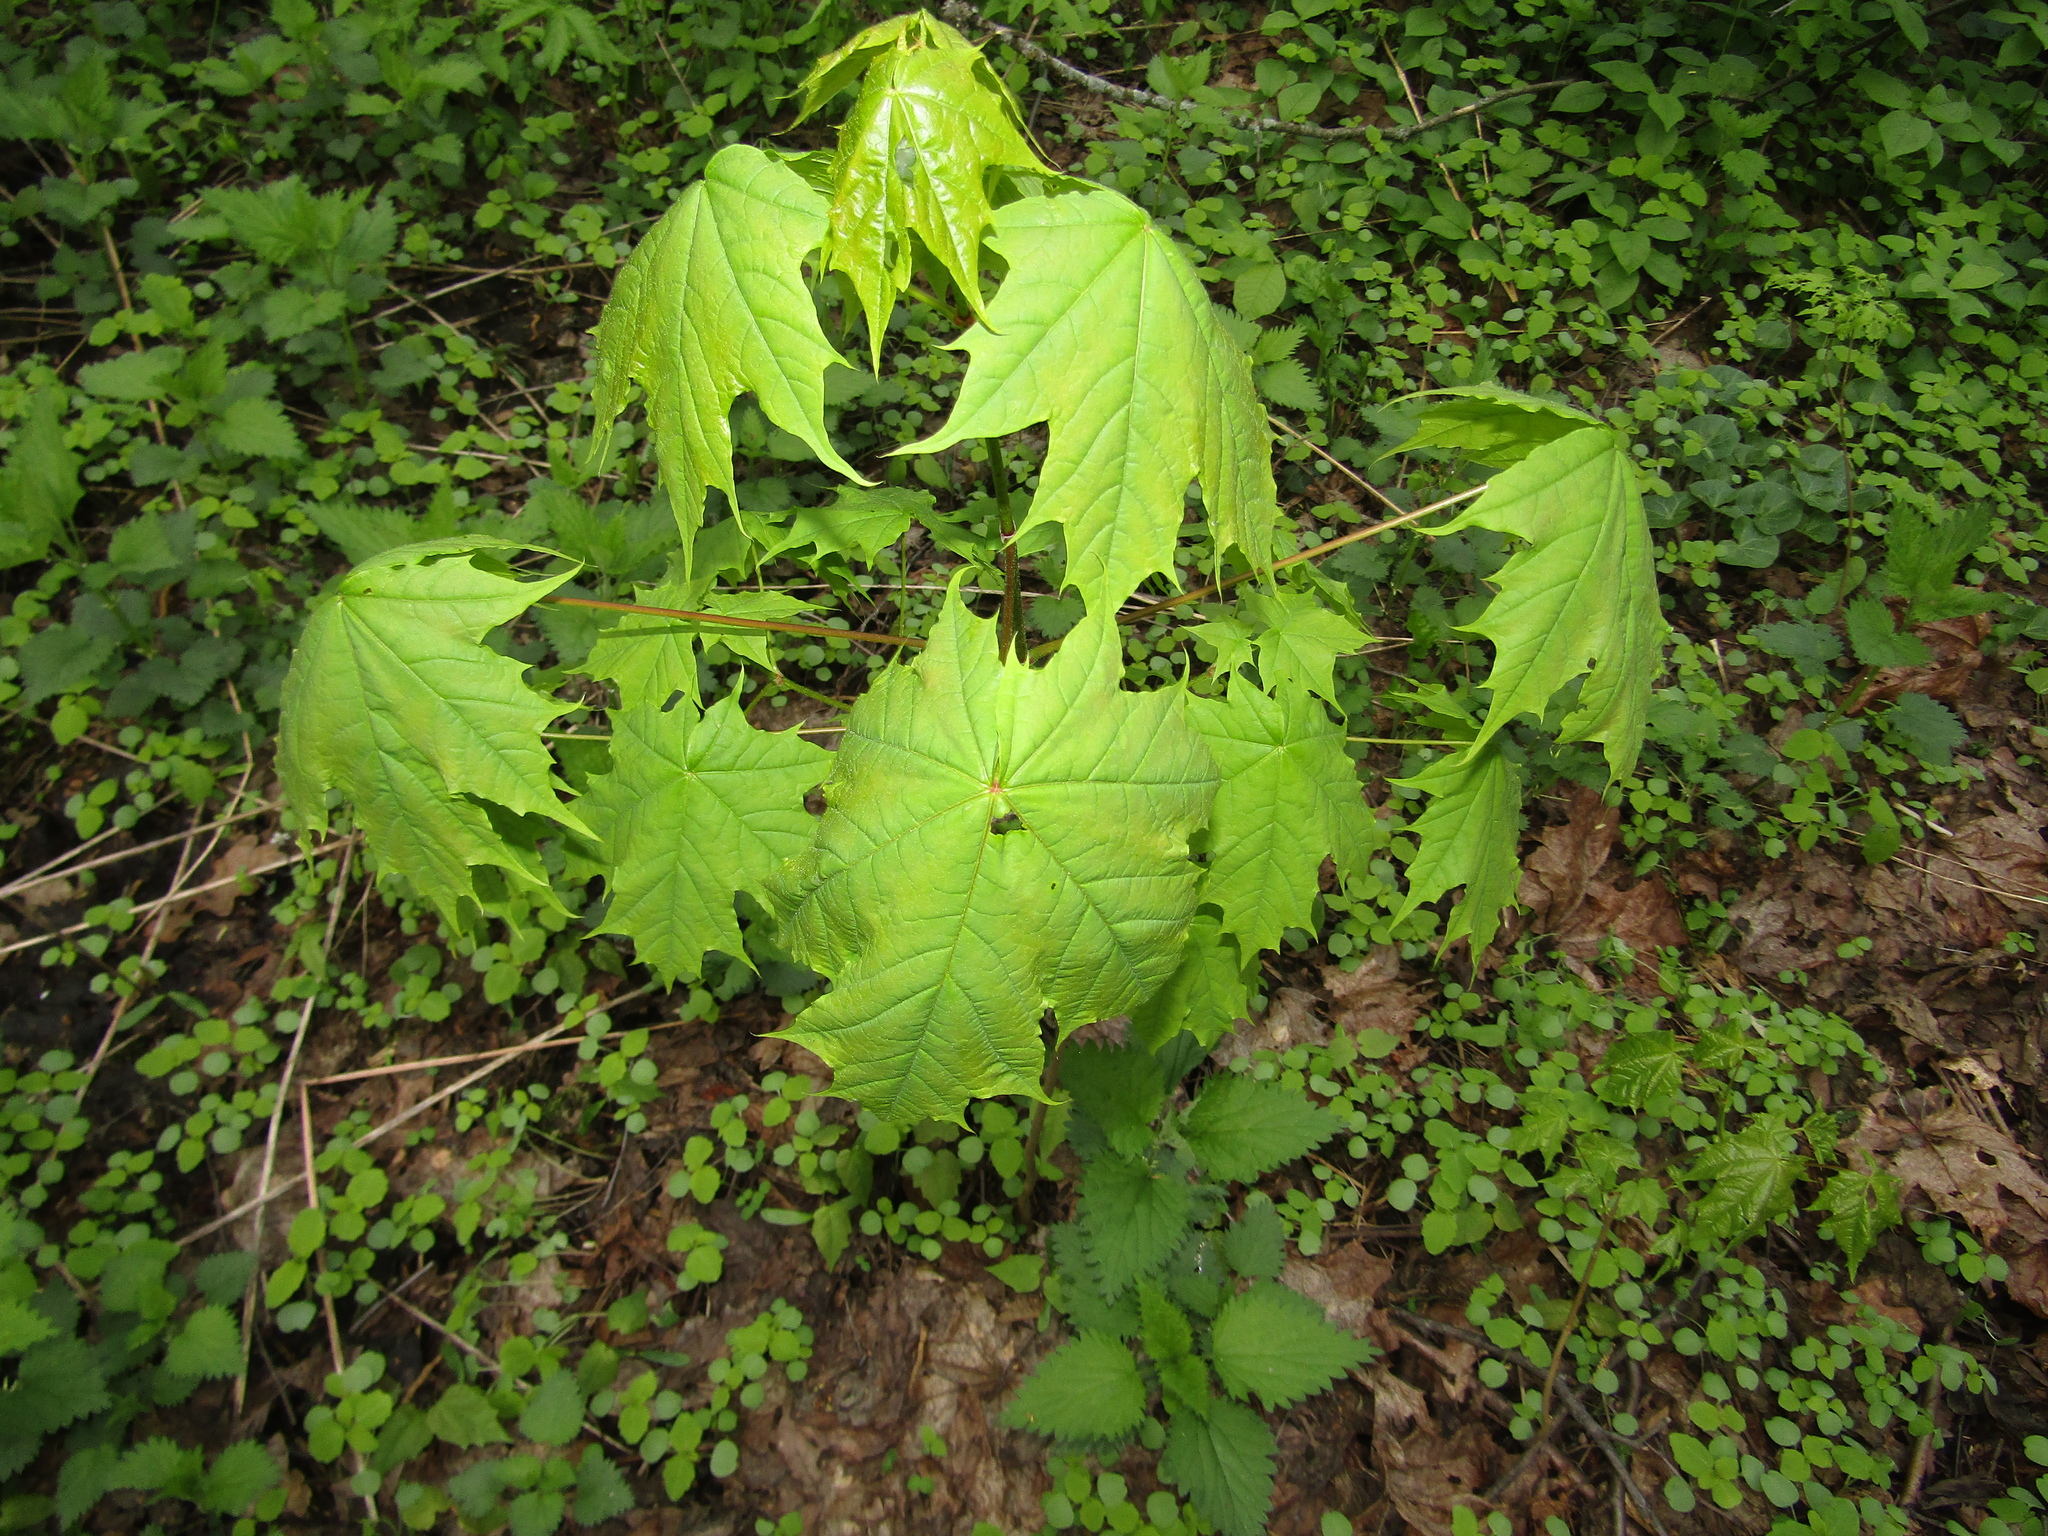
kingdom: Plantae
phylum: Tracheophyta
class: Magnoliopsida
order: Sapindales
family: Sapindaceae
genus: Acer
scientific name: Acer platanoides
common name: Norway maple
